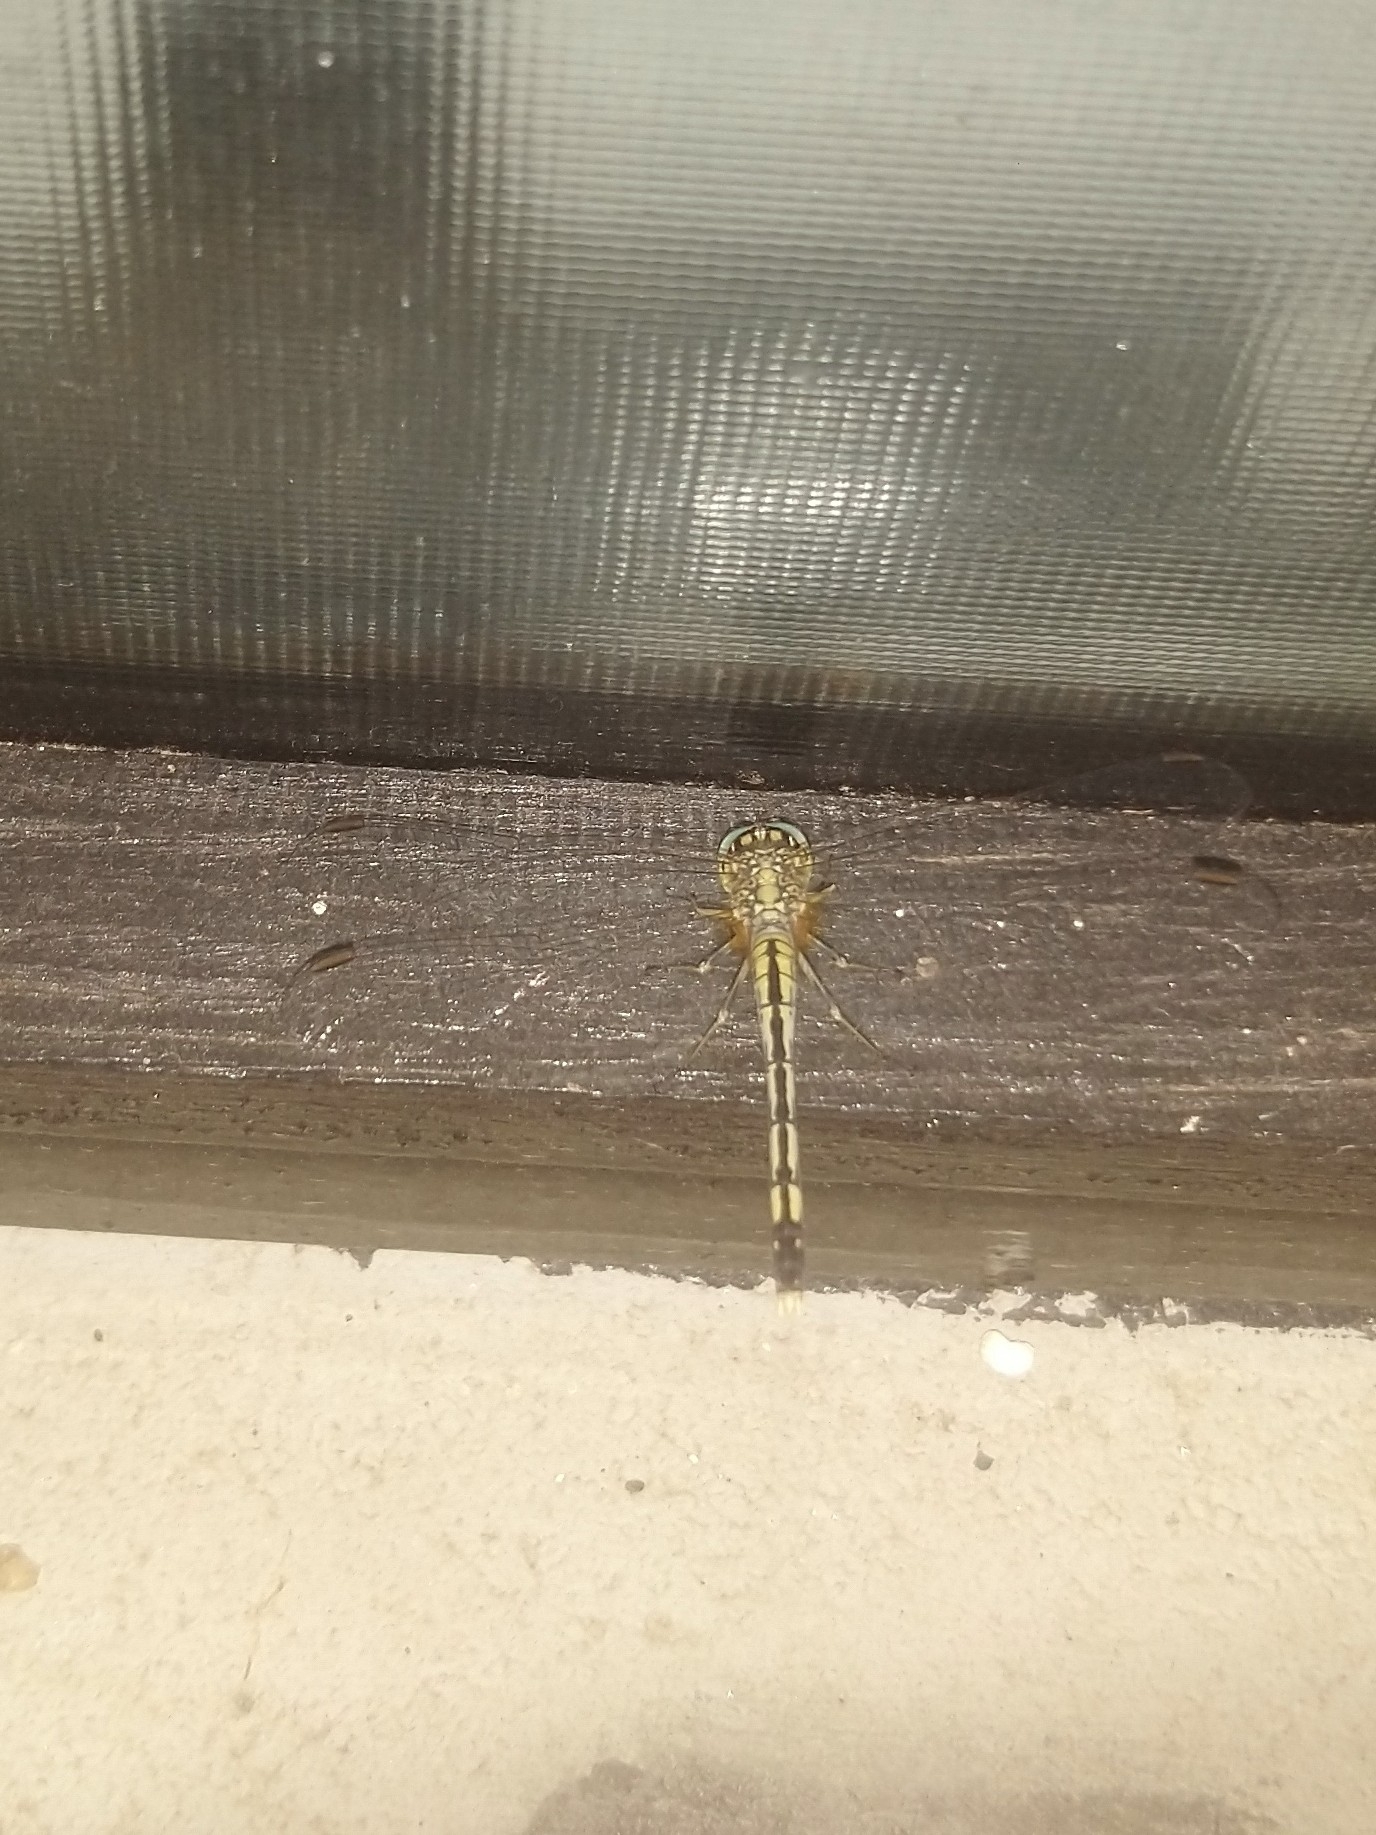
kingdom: Animalia
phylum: Arthropoda
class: Insecta
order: Odonata
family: Libellulidae
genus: Diplacodes
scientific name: Diplacodes trivialis
